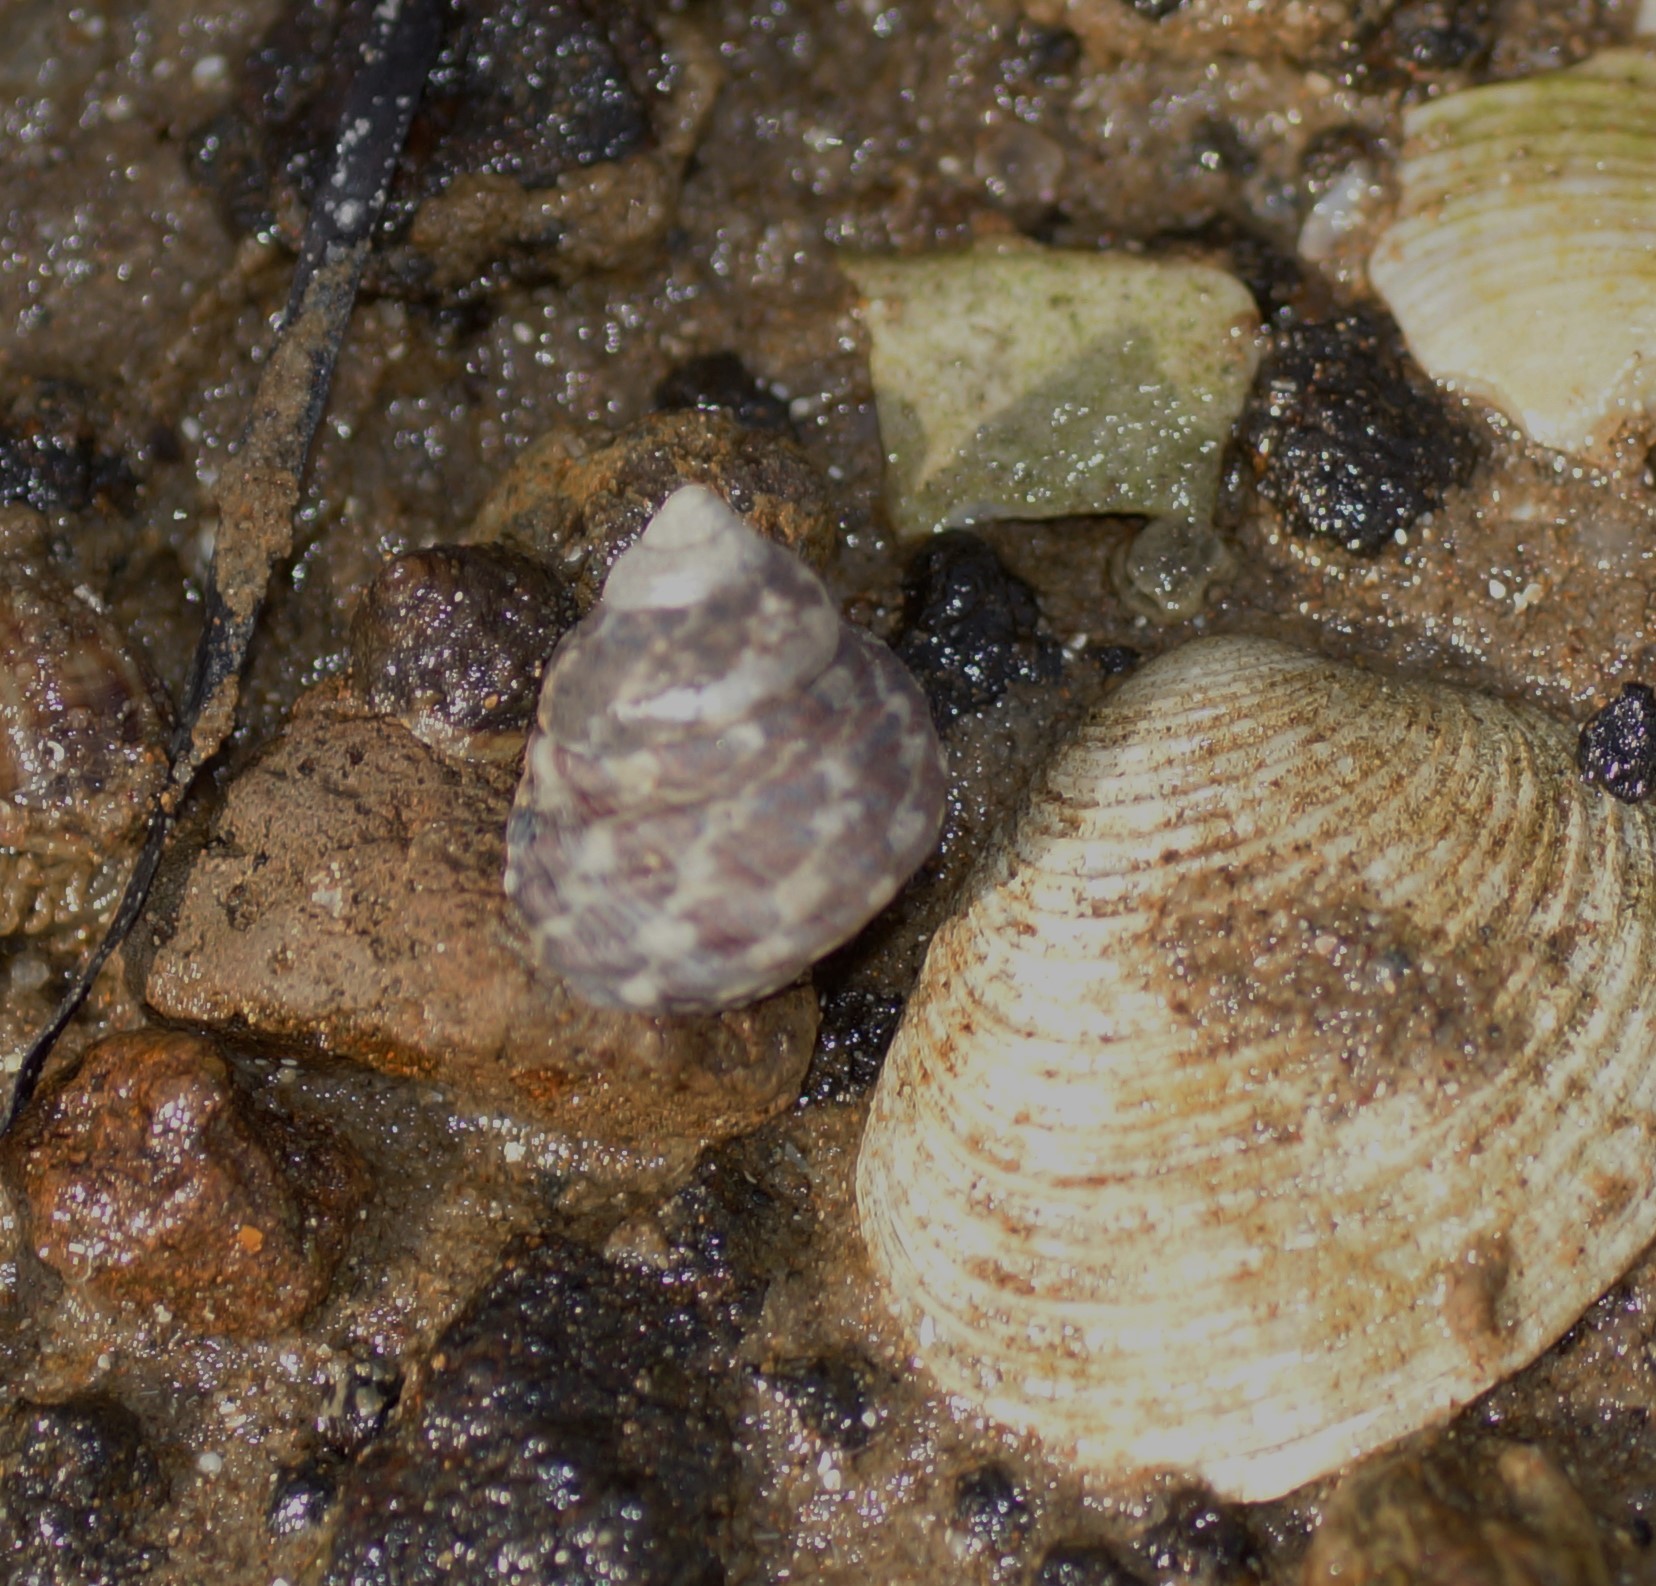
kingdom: Animalia
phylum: Mollusca
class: Gastropoda
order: Trochida
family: Trochidae
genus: Austrocochlea
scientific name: Austrocochlea porcata
